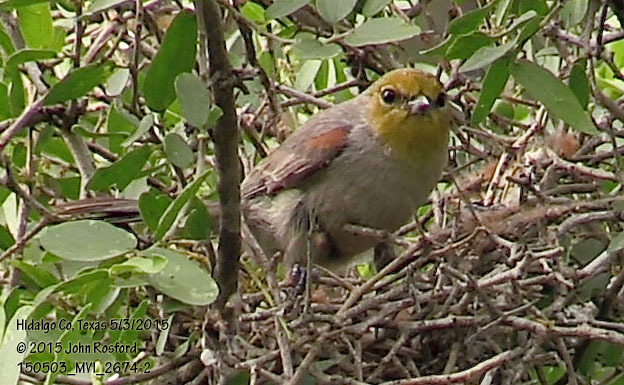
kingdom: Animalia
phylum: Chordata
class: Aves
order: Passeriformes
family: Remizidae
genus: Auriparus
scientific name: Auriparus flaviceps
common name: Verdin
